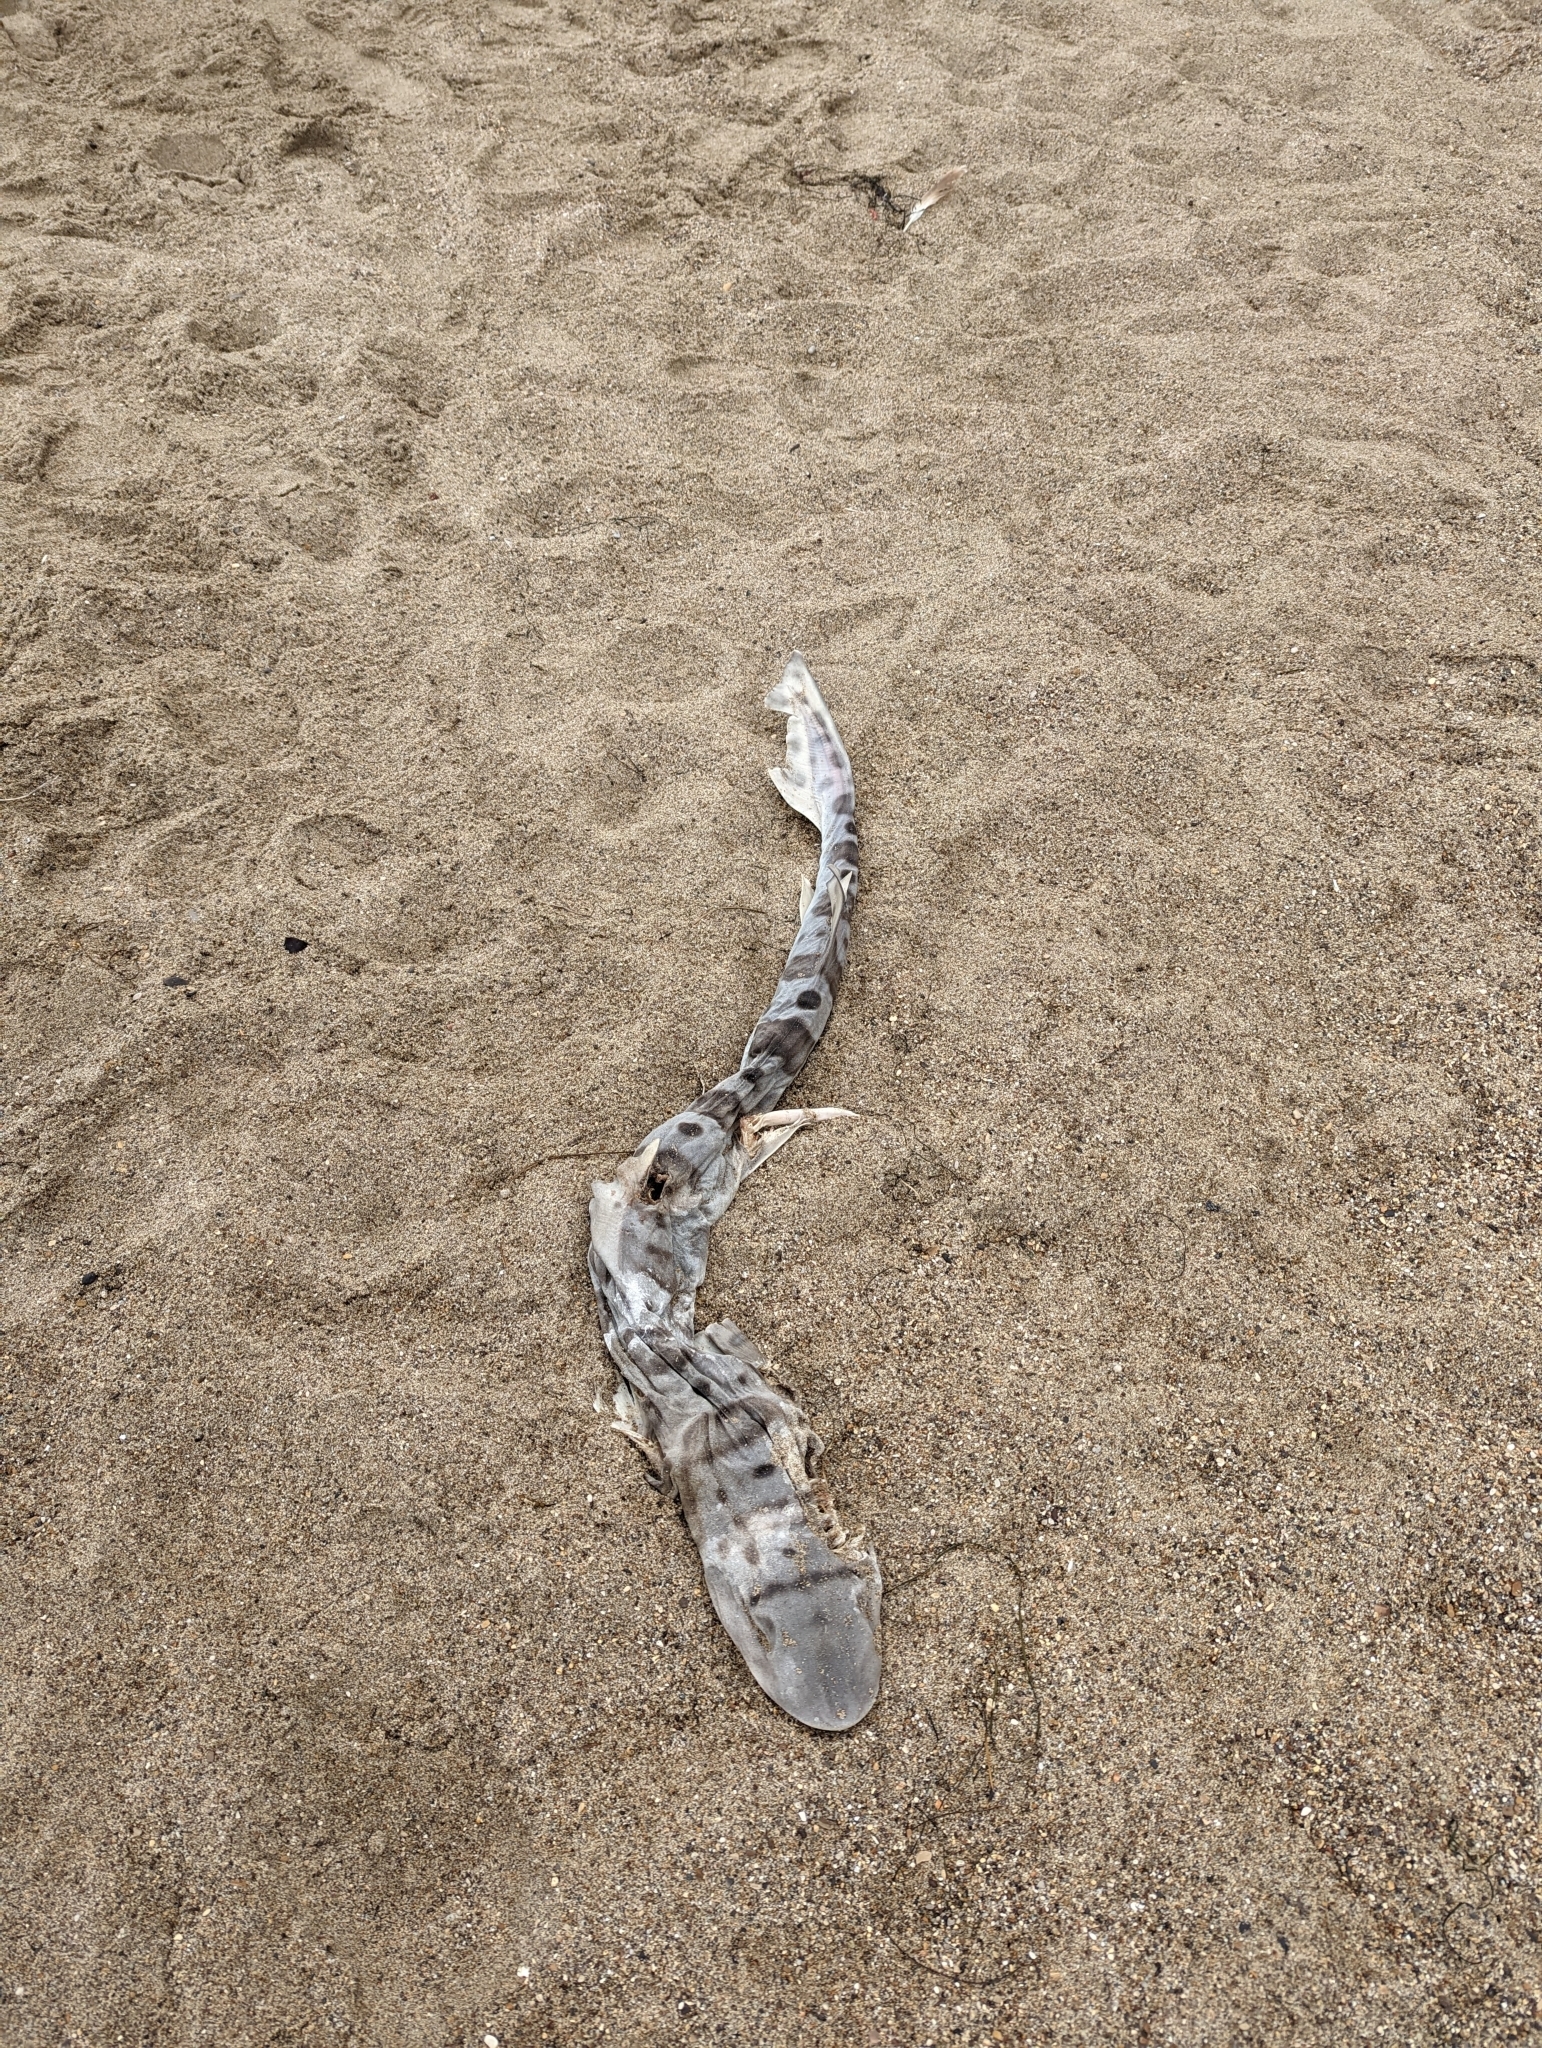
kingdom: Animalia
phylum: Chordata
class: Elasmobranchii
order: Carcharhiniformes
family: Triakidae
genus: Triakis
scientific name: Triakis semifasciata
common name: Leopard shark
